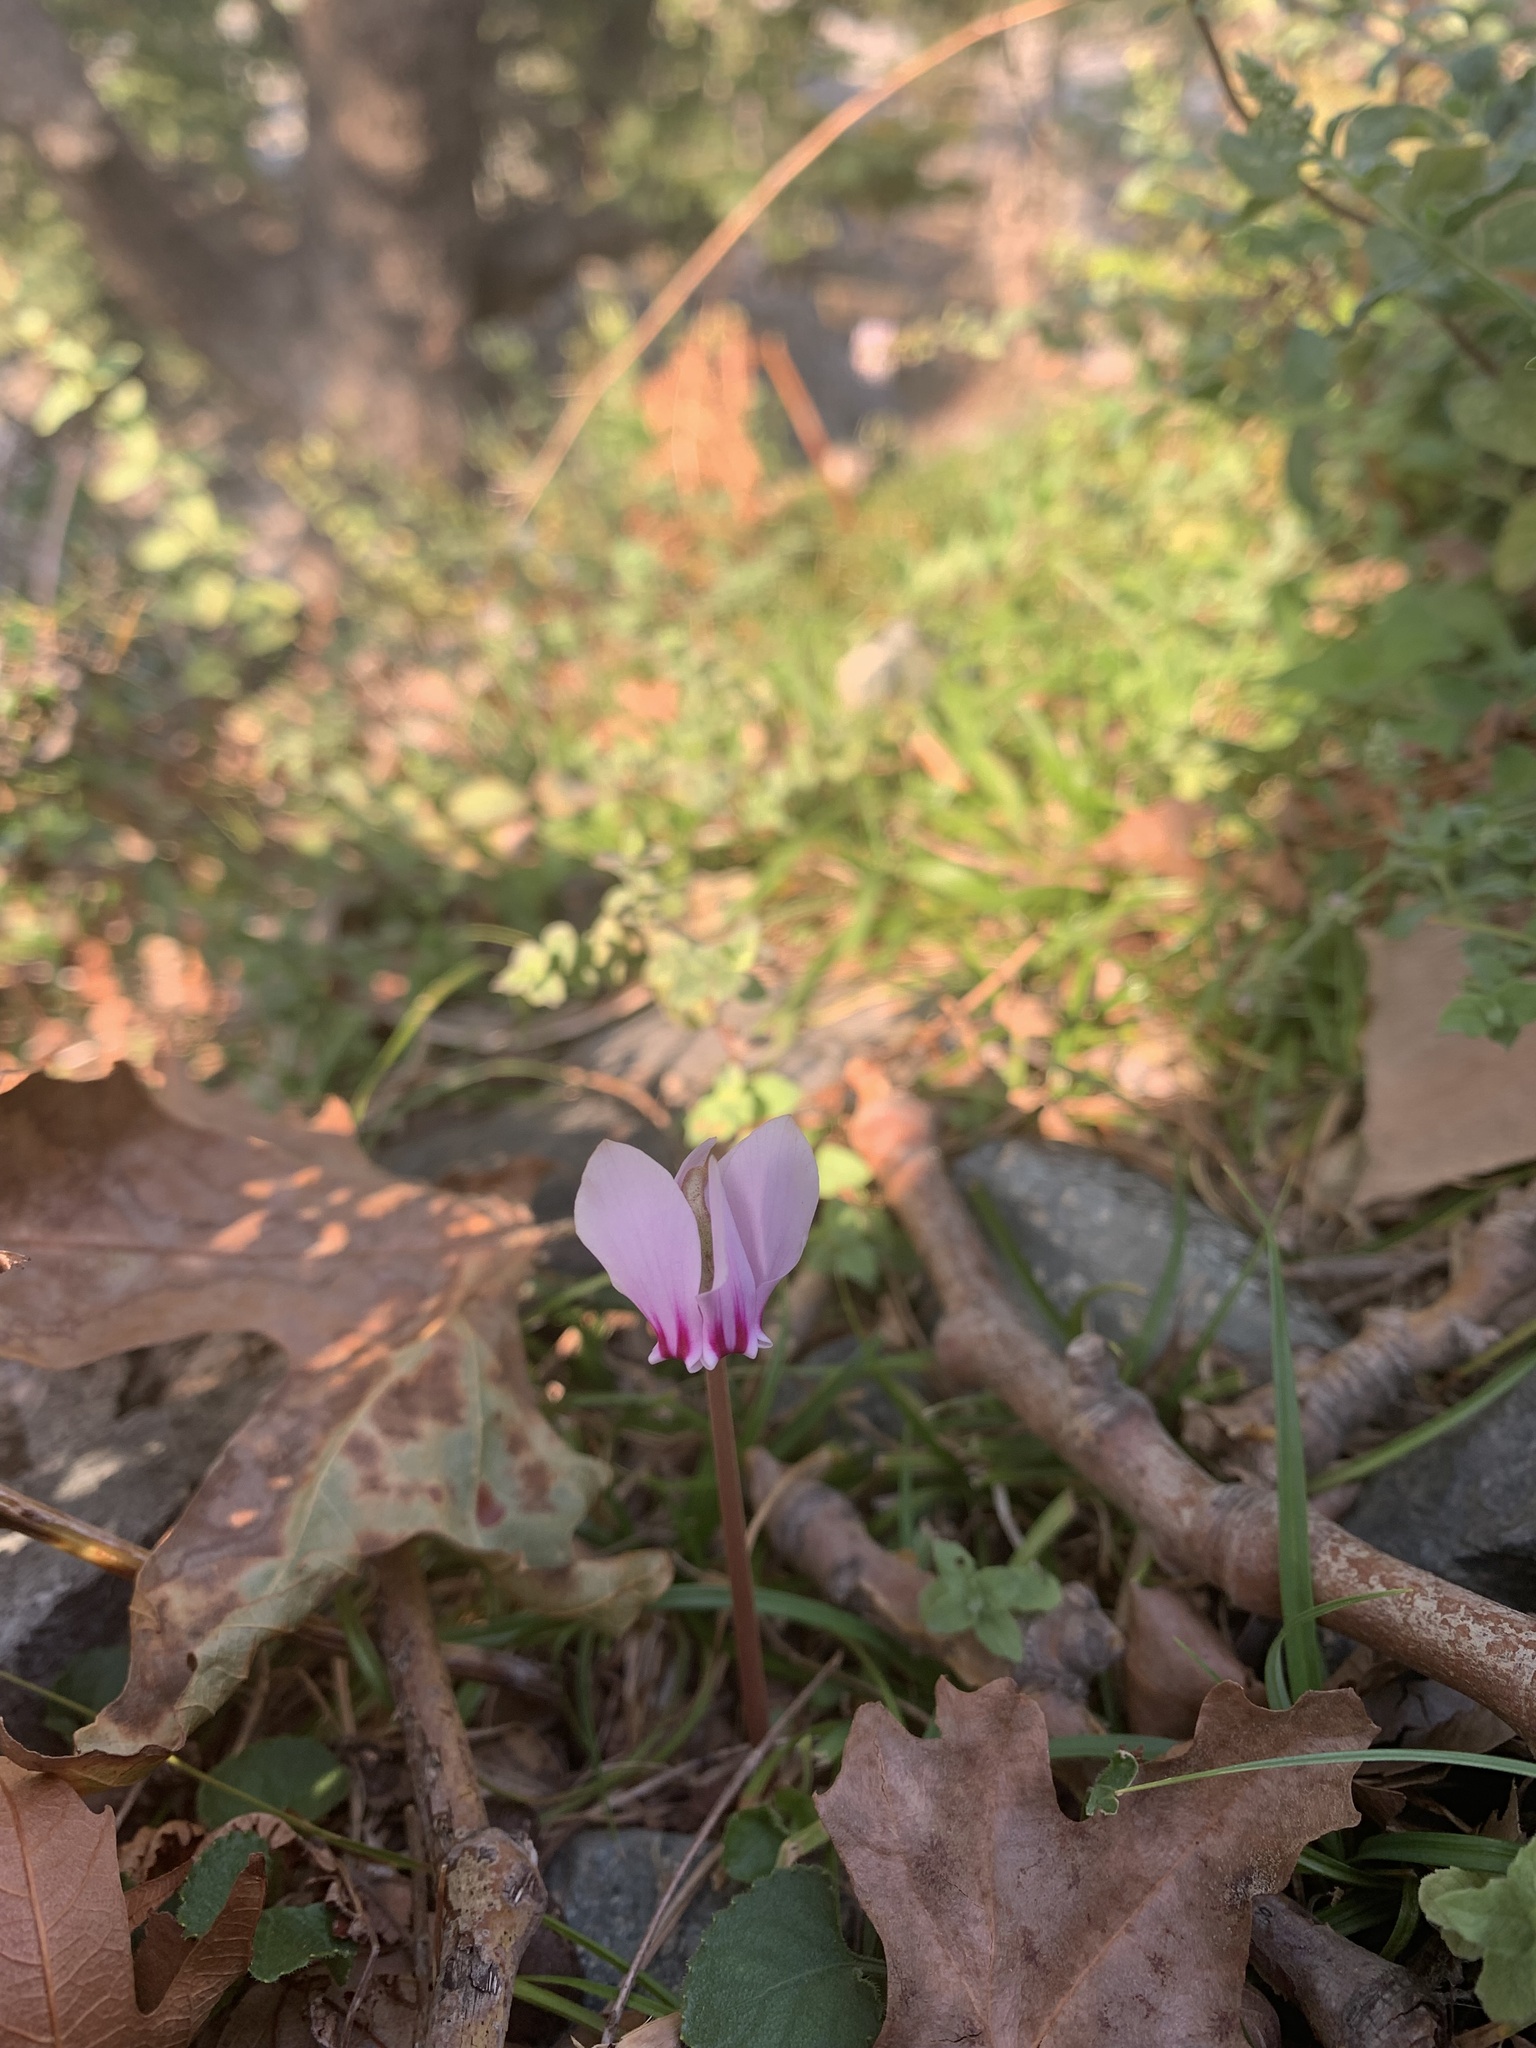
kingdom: Plantae
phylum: Tracheophyta
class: Magnoliopsida
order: Ericales
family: Primulaceae
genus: Cyclamen
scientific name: Cyclamen hederifolium
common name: Sowbread
